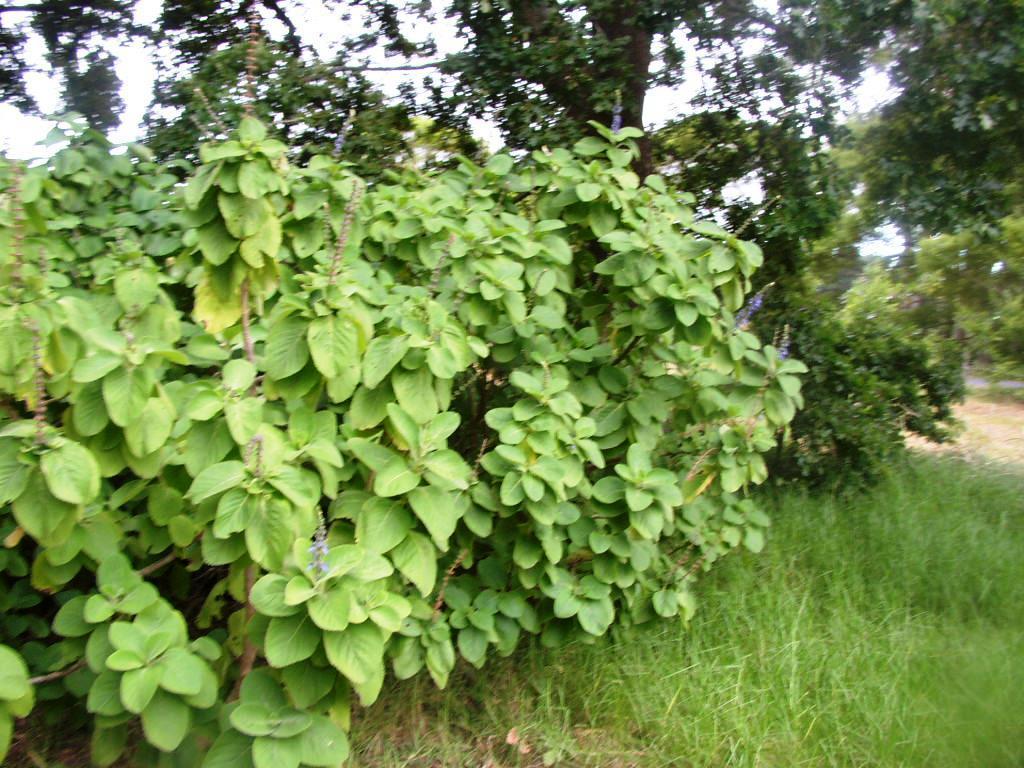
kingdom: Plantae
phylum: Tracheophyta
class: Magnoliopsida
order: Lamiales
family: Lamiaceae
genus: Coleus
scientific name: Coleus barbatus
